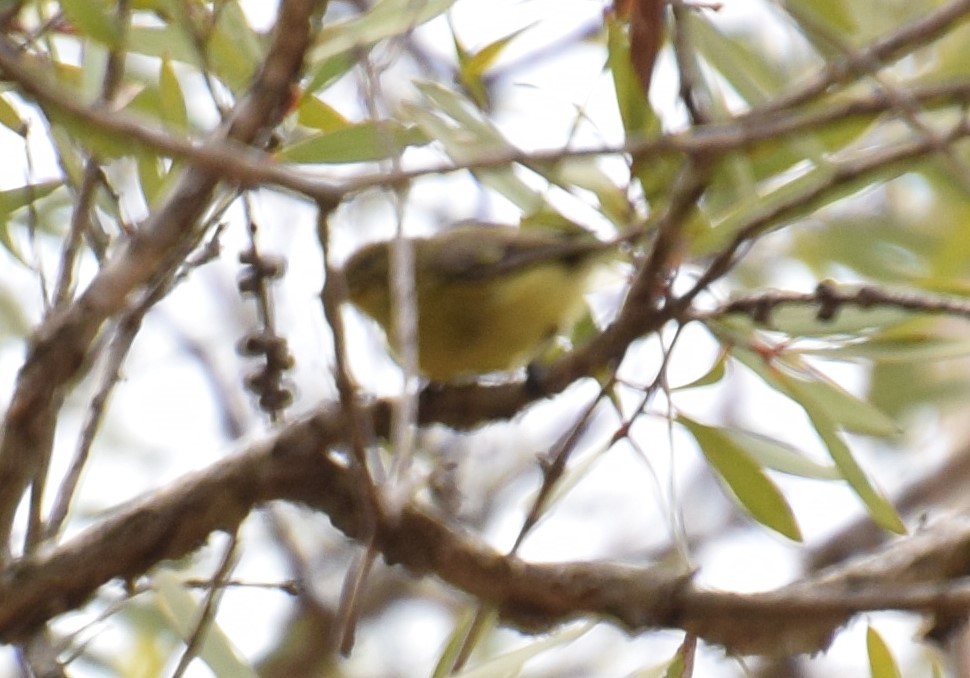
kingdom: Animalia
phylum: Chordata
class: Aves
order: Passeriformes
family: Acanthizidae
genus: Acanthiza
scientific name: Acanthiza nana
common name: Yellow thornbill
